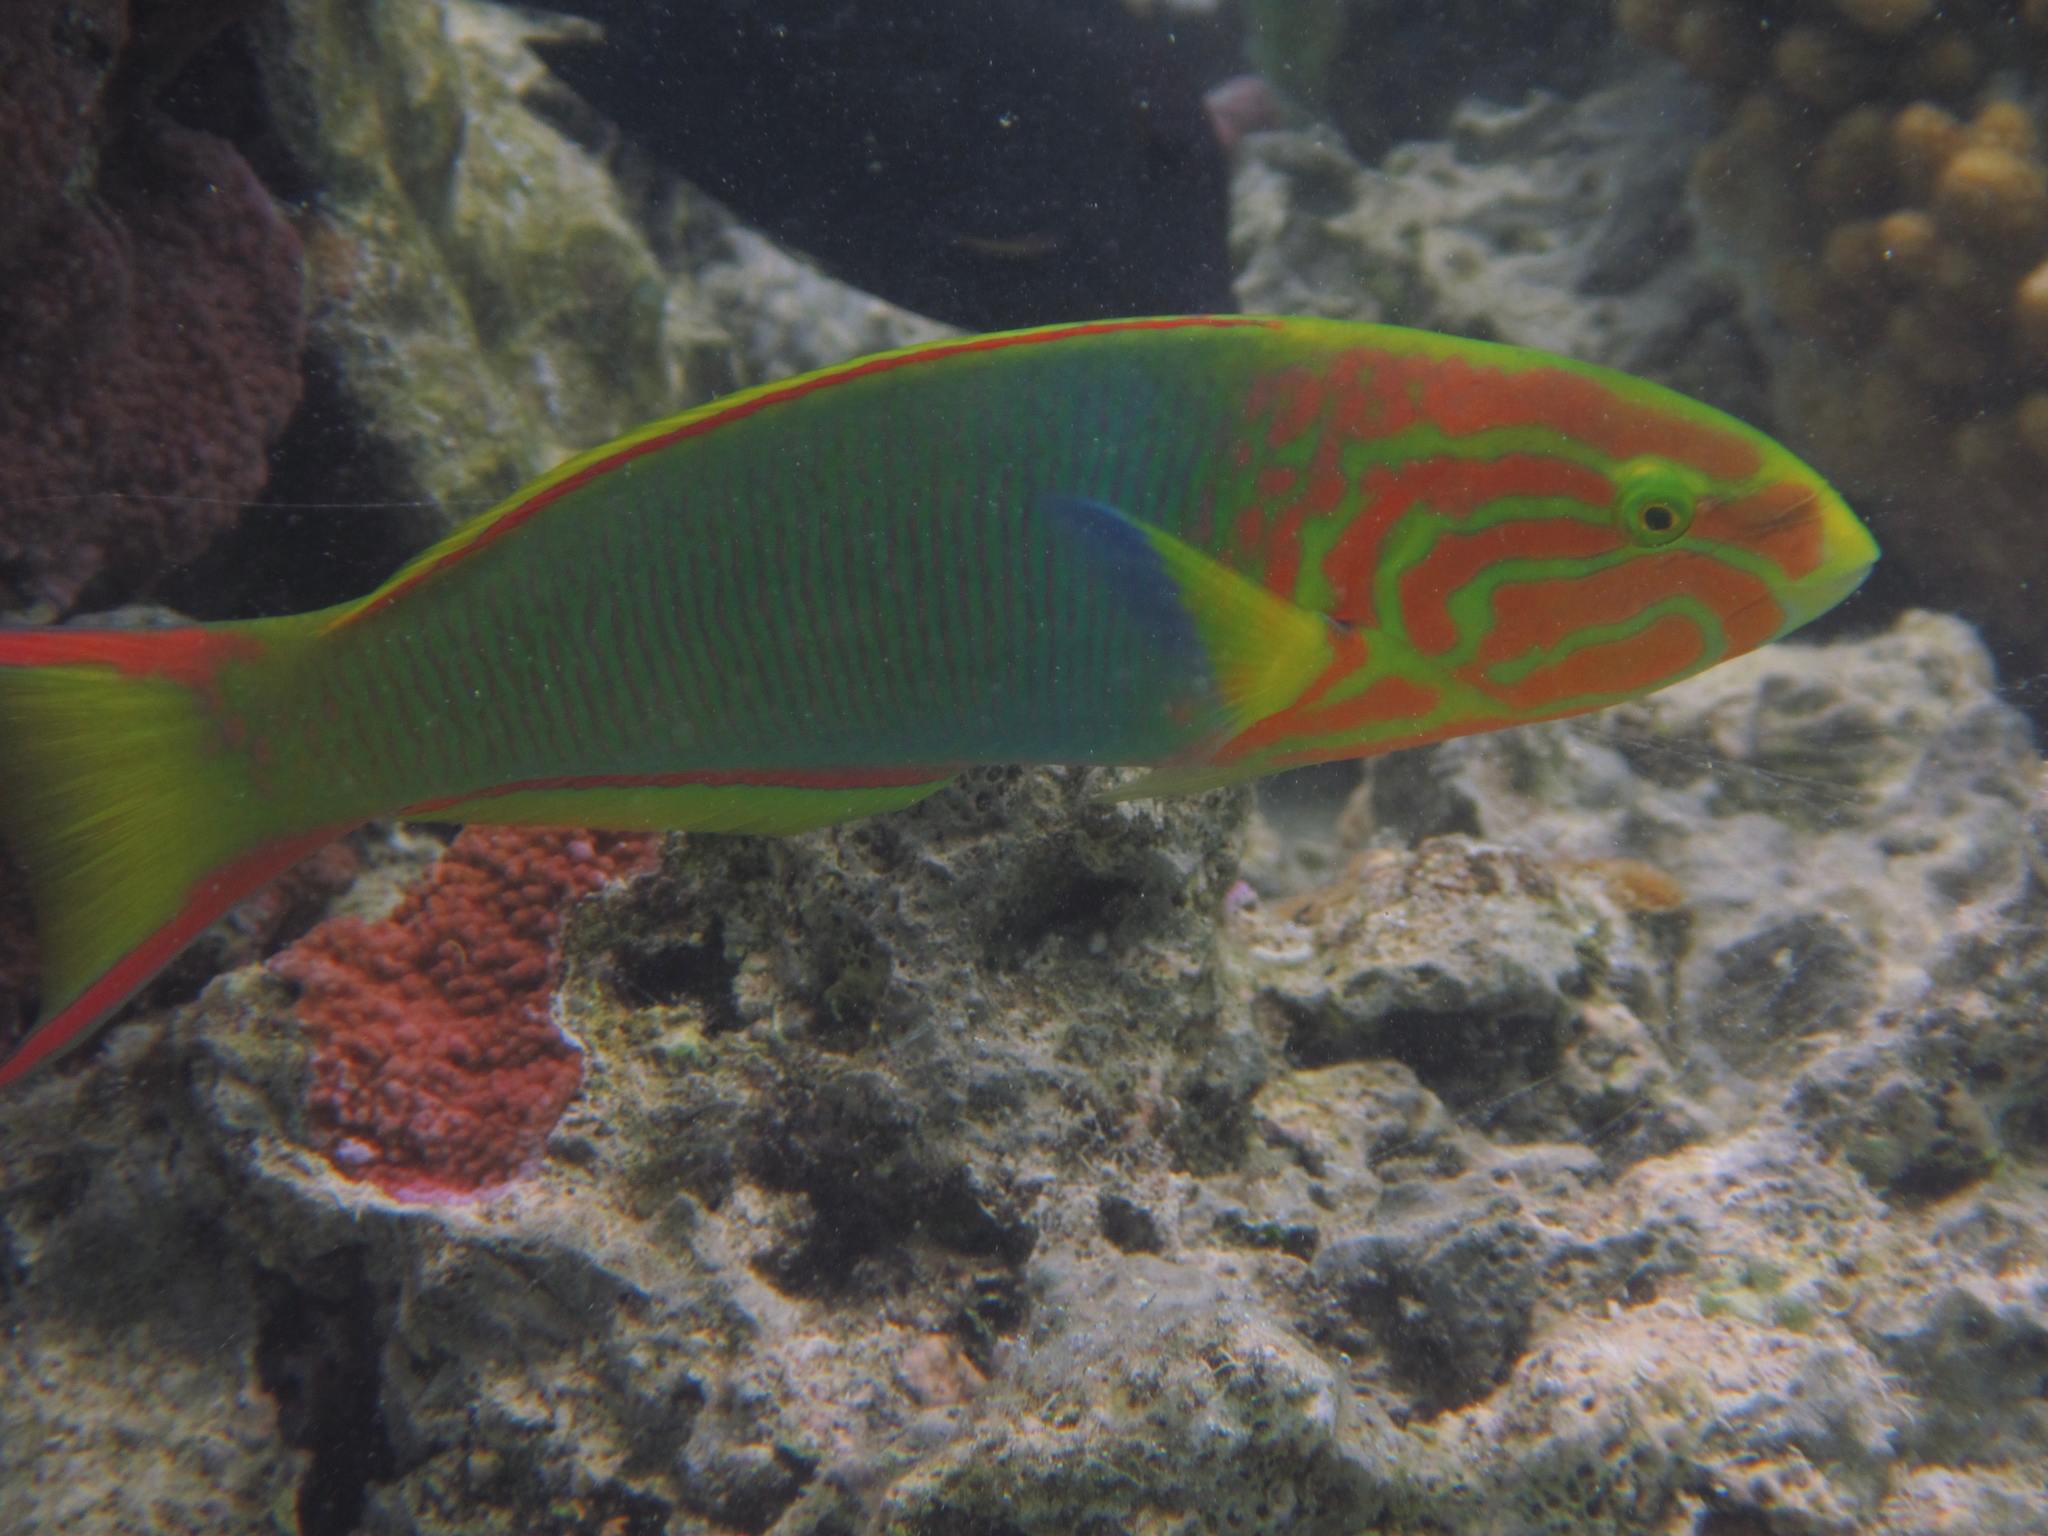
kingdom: Animalia
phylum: Chordata
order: Perciformes
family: Labridae
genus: Thalassoma
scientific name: Thalassoma lutescens
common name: Green moon wrasse
